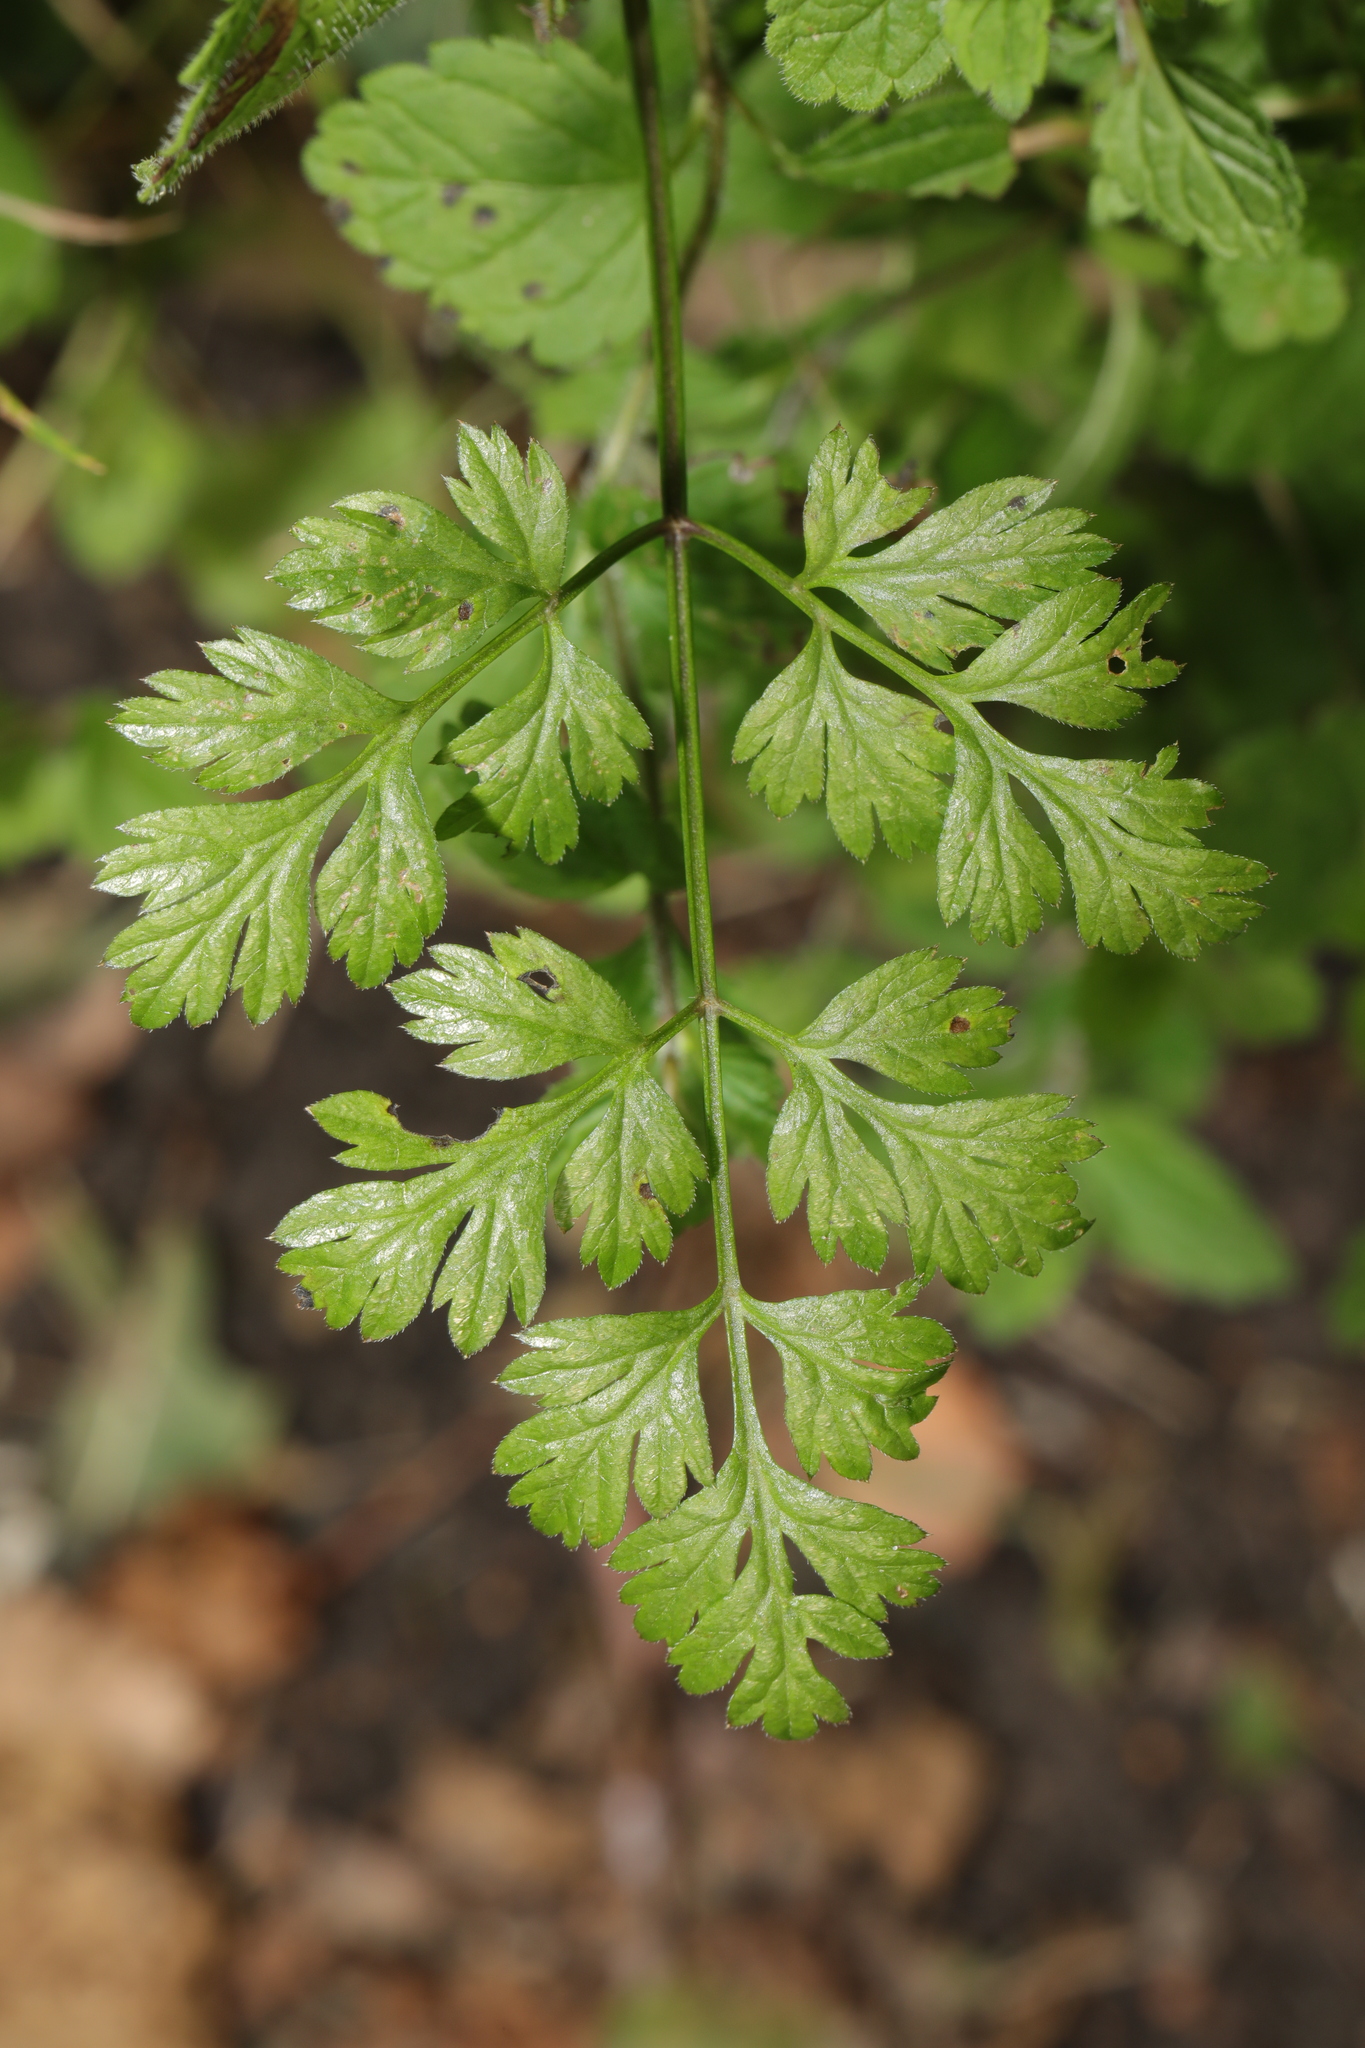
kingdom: Plantae
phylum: Tracheophyta
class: Magnoliopsida
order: Apiales
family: Apiaceae
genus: Anthriscus
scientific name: Anthriscus sylvestris
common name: Cow parsley
